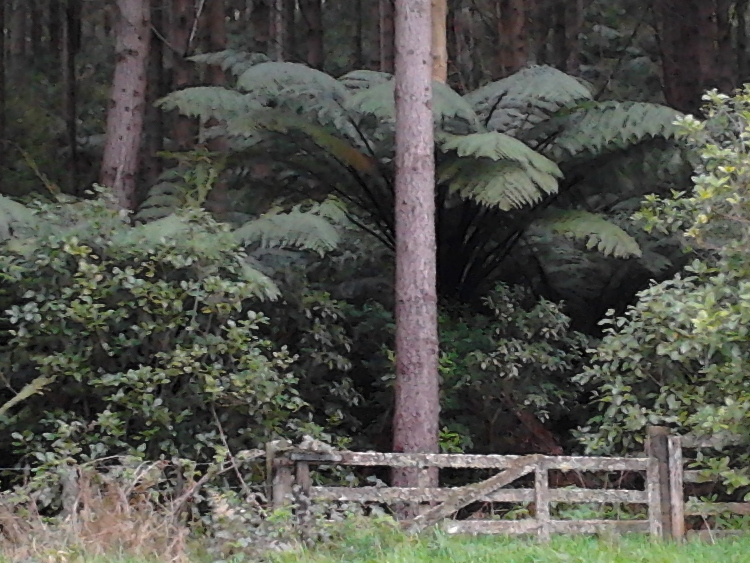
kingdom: Plantae
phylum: Tracheophyta
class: Polypodiopsida
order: Cyatheales
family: Cyatheaceae
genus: Sphaeropteris
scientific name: Sphaeropteris medullaris
